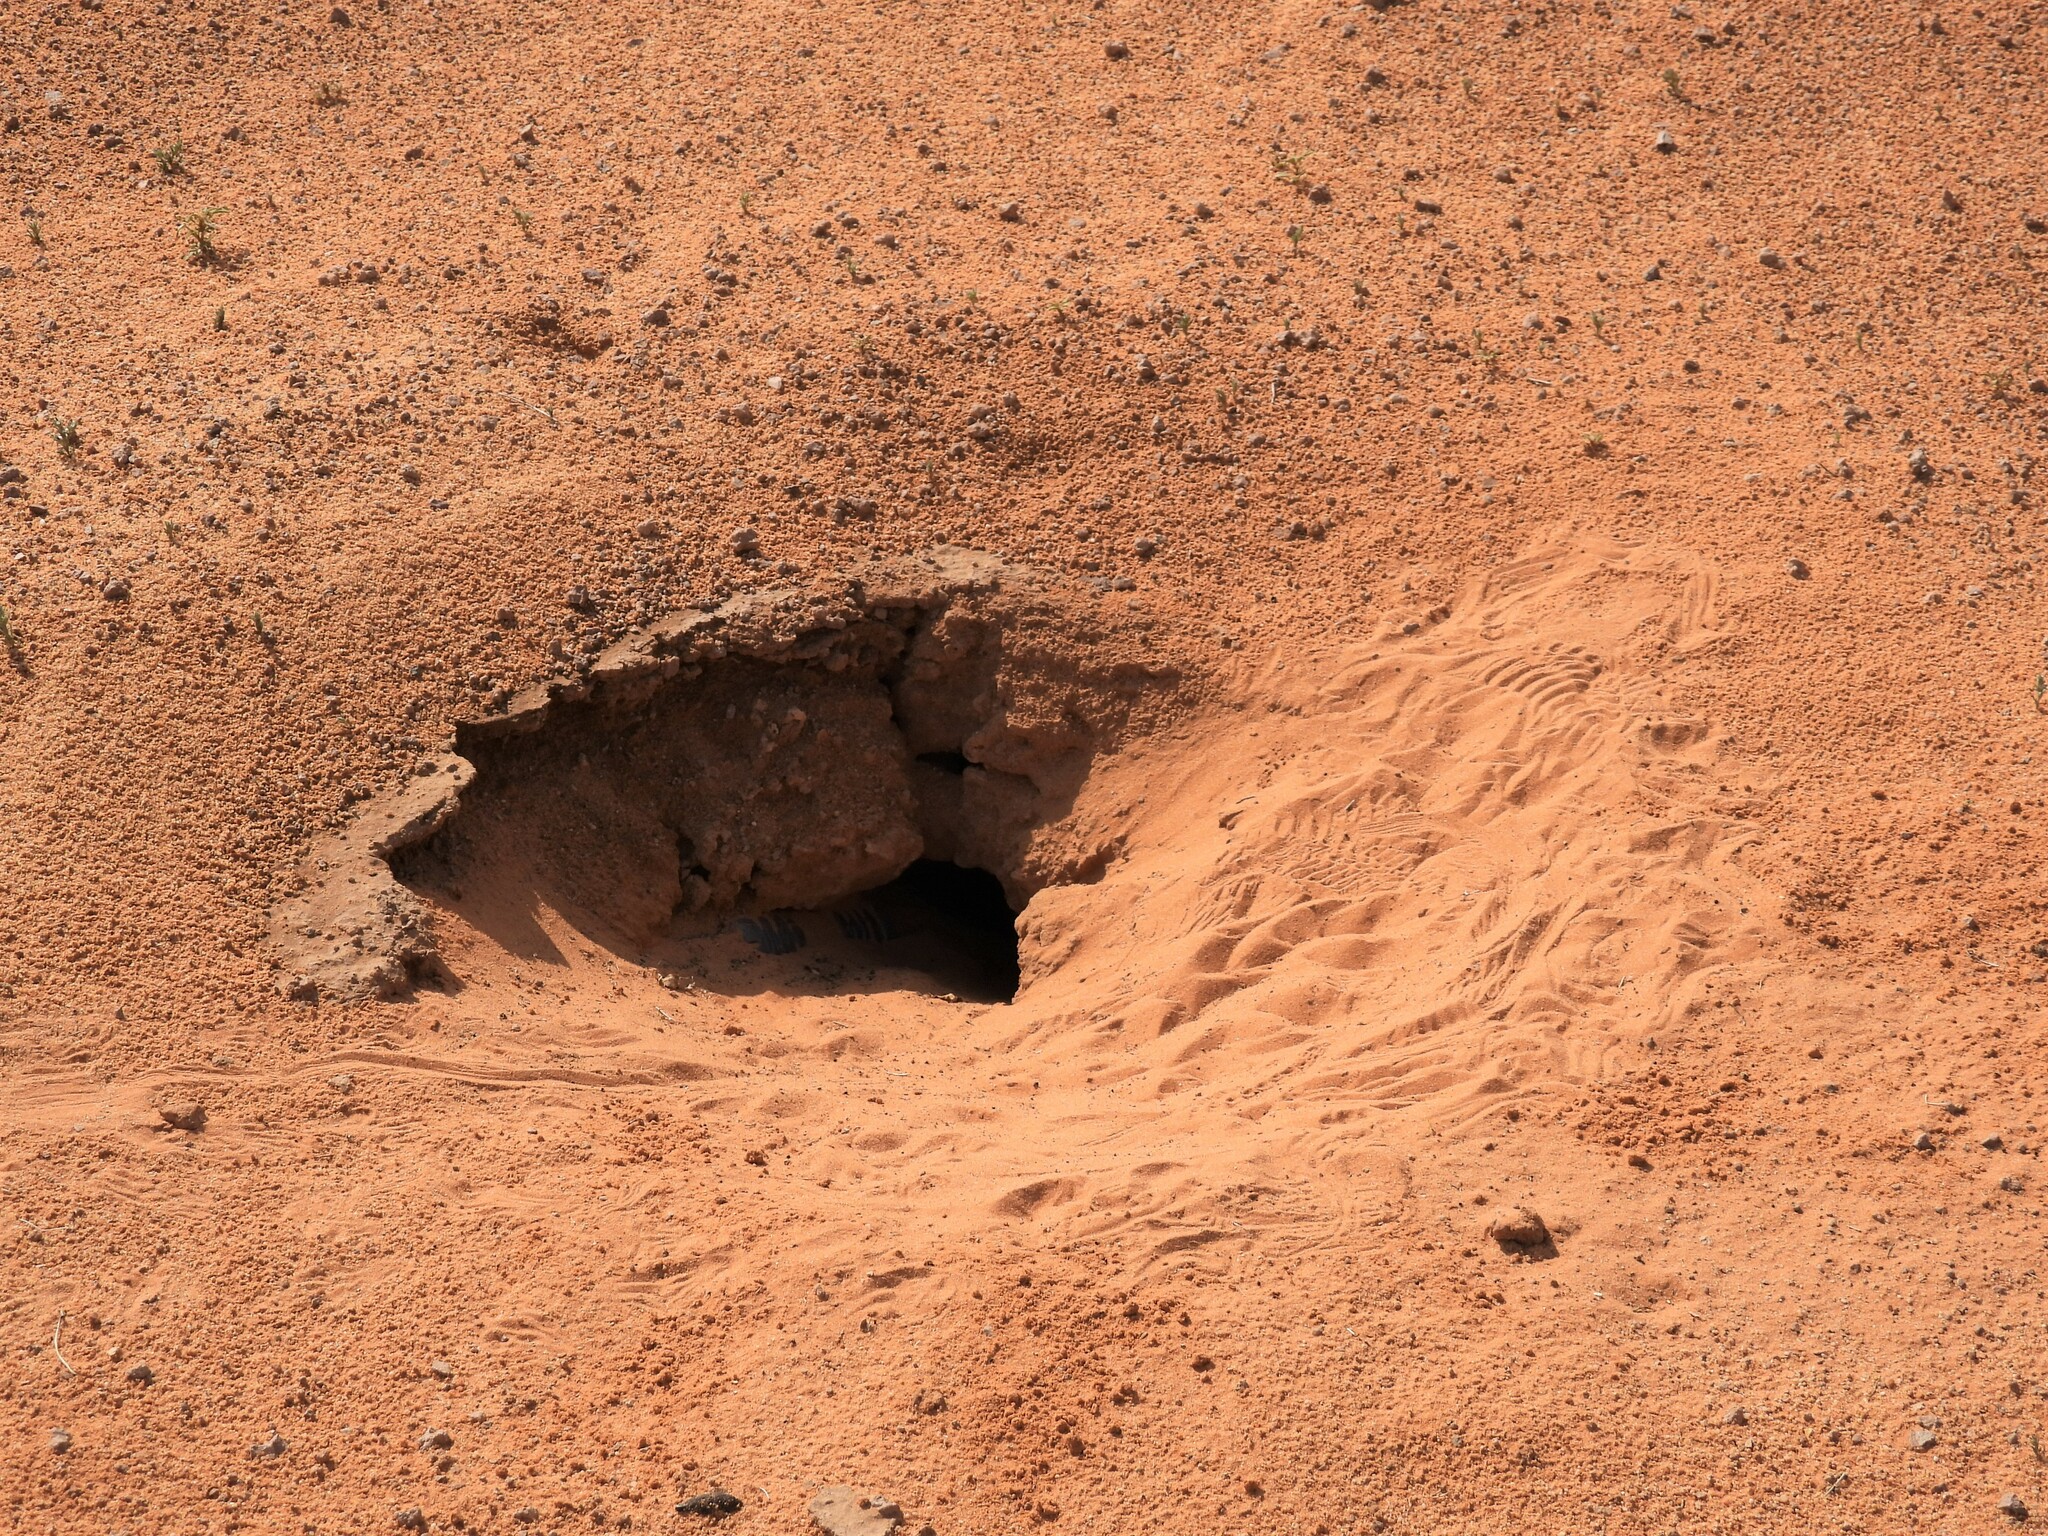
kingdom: Animalia
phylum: Chordata
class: Squamata
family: Agamidae
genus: Uromastyx
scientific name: Uromastyx aegyptia
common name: Egyptian mastigure
